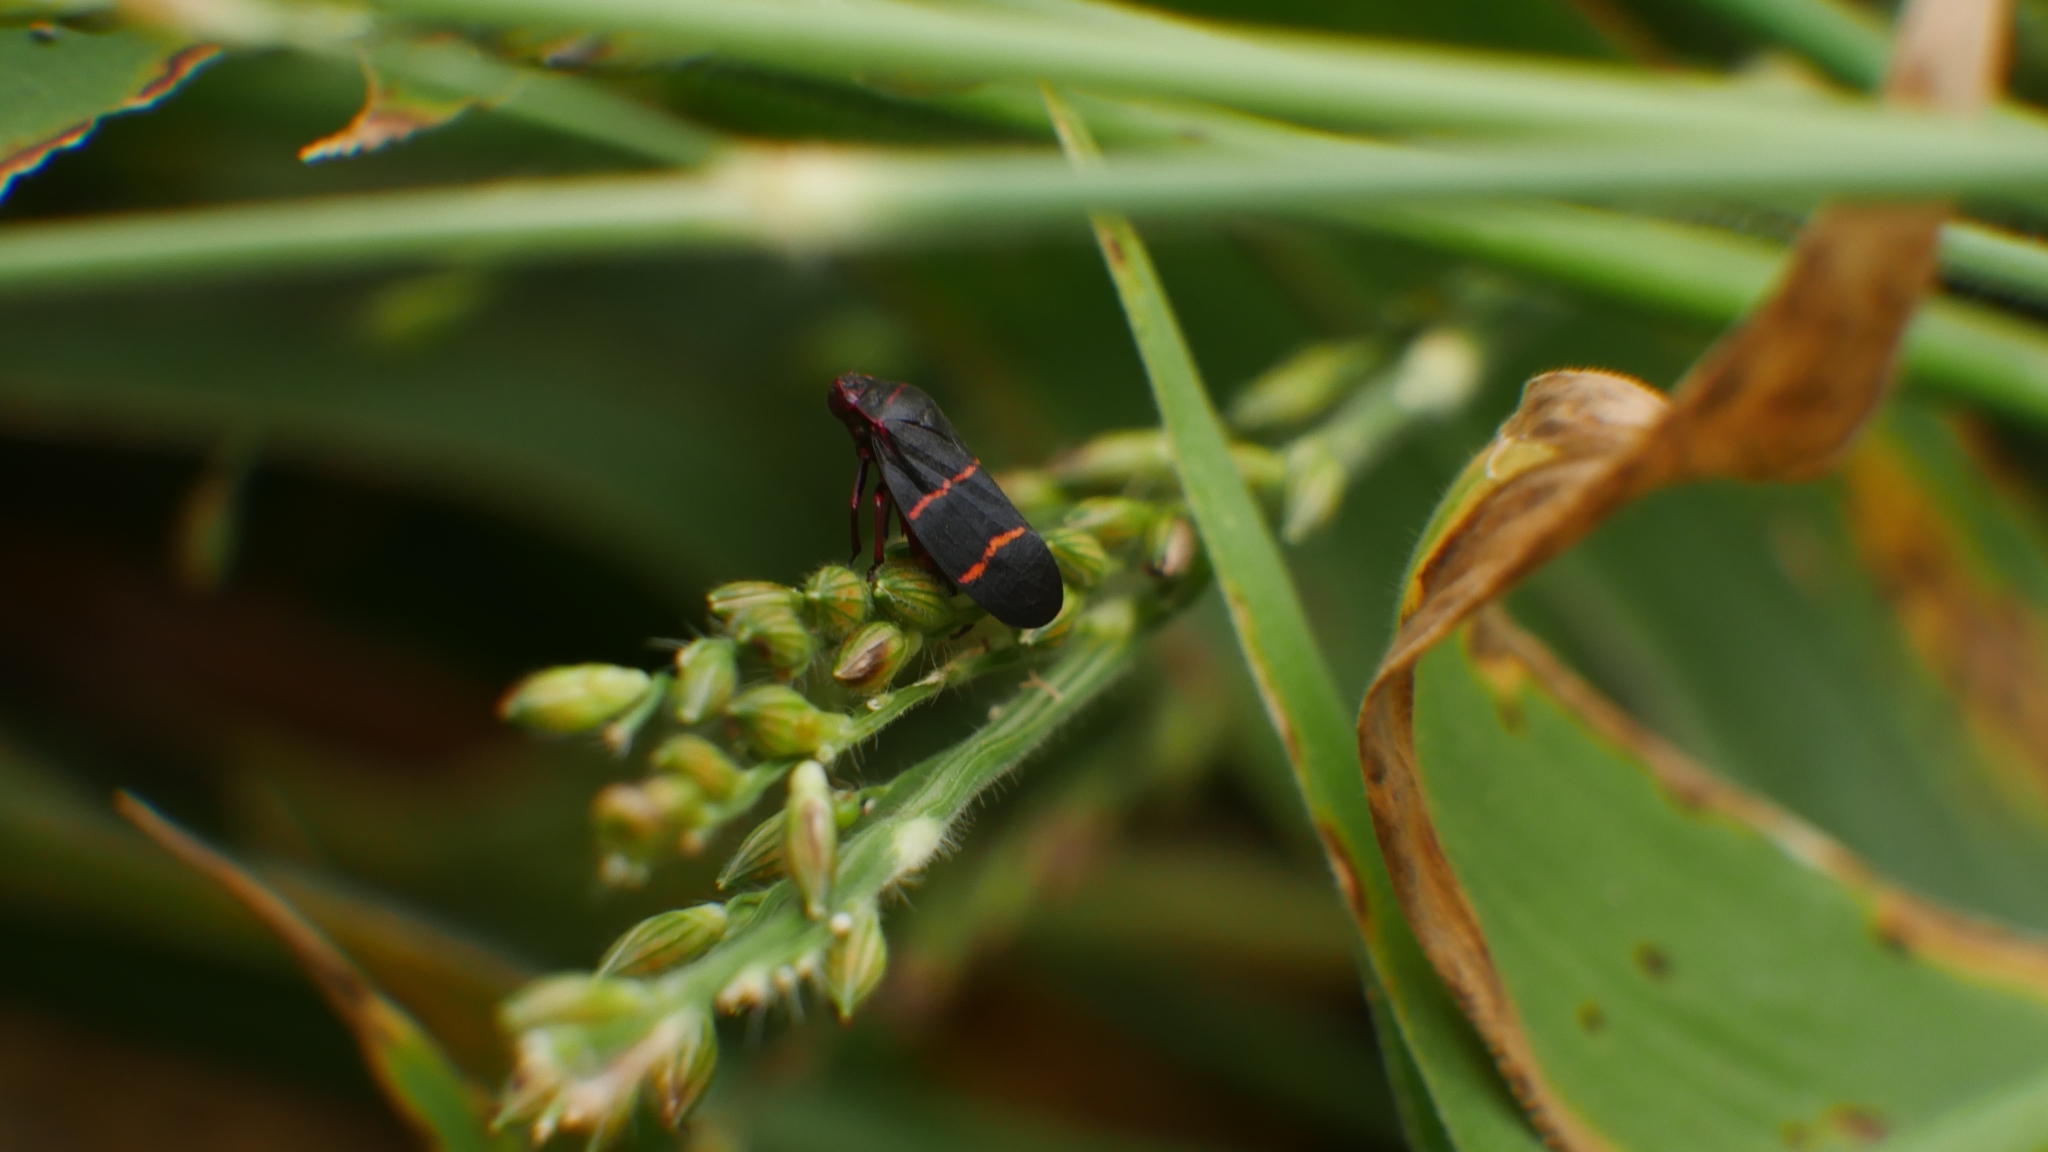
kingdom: Animalia
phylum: Arthropoda
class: Insecta
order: Hemiptera
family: Cercopidae
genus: Prosapia
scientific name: Prosapia bicincta
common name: Twolined spittlebug
